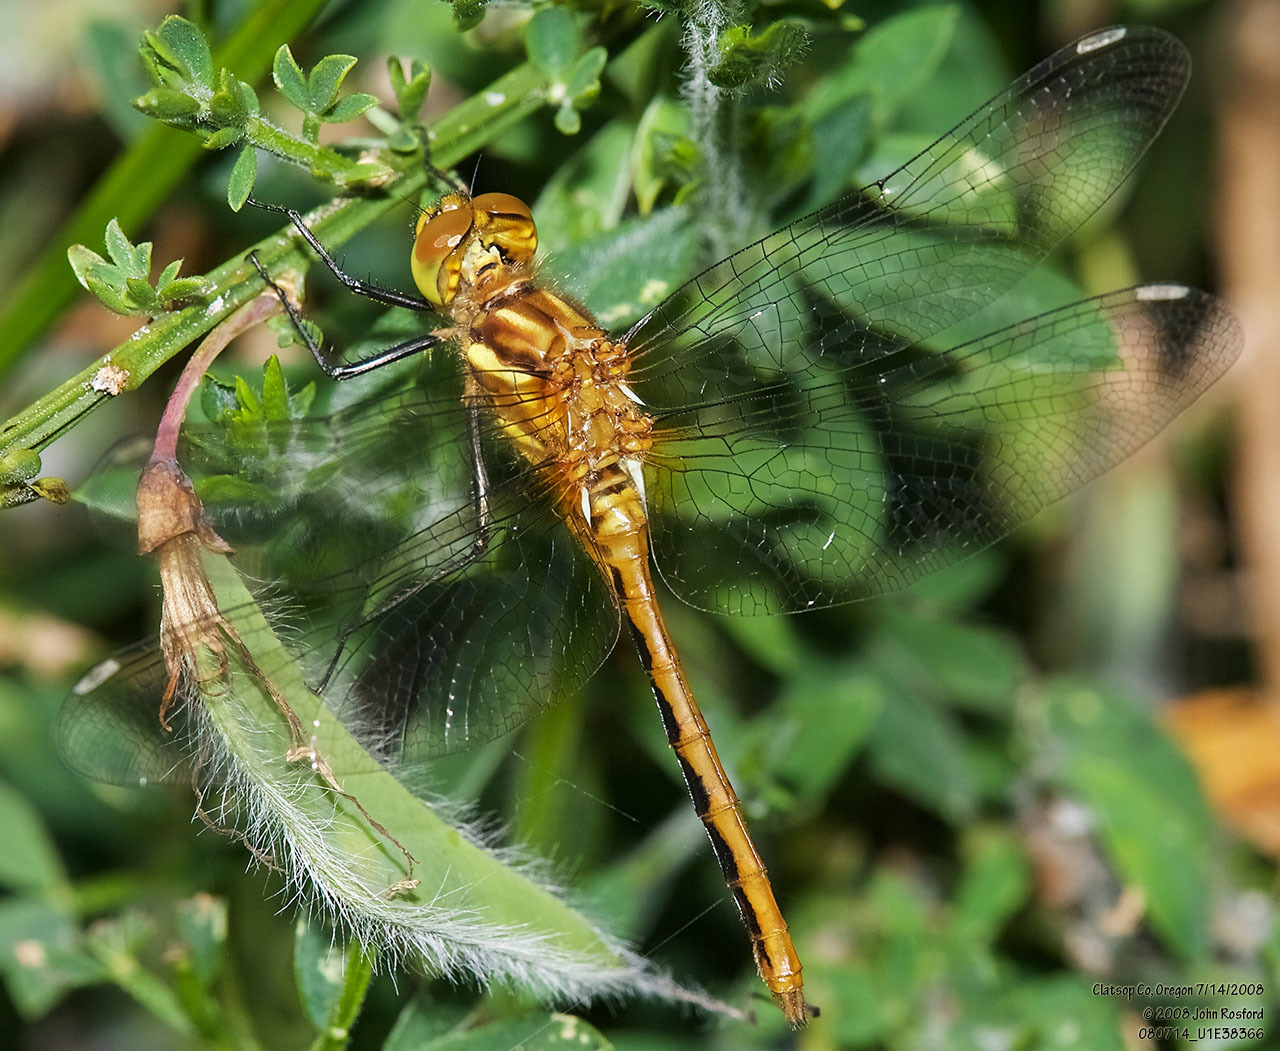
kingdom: Animalia
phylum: Arthropoda
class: Insecta
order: Odonata
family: Libellulidae
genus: Sympetrum
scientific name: Sympetrum pallipes
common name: Striped meadowhawk
